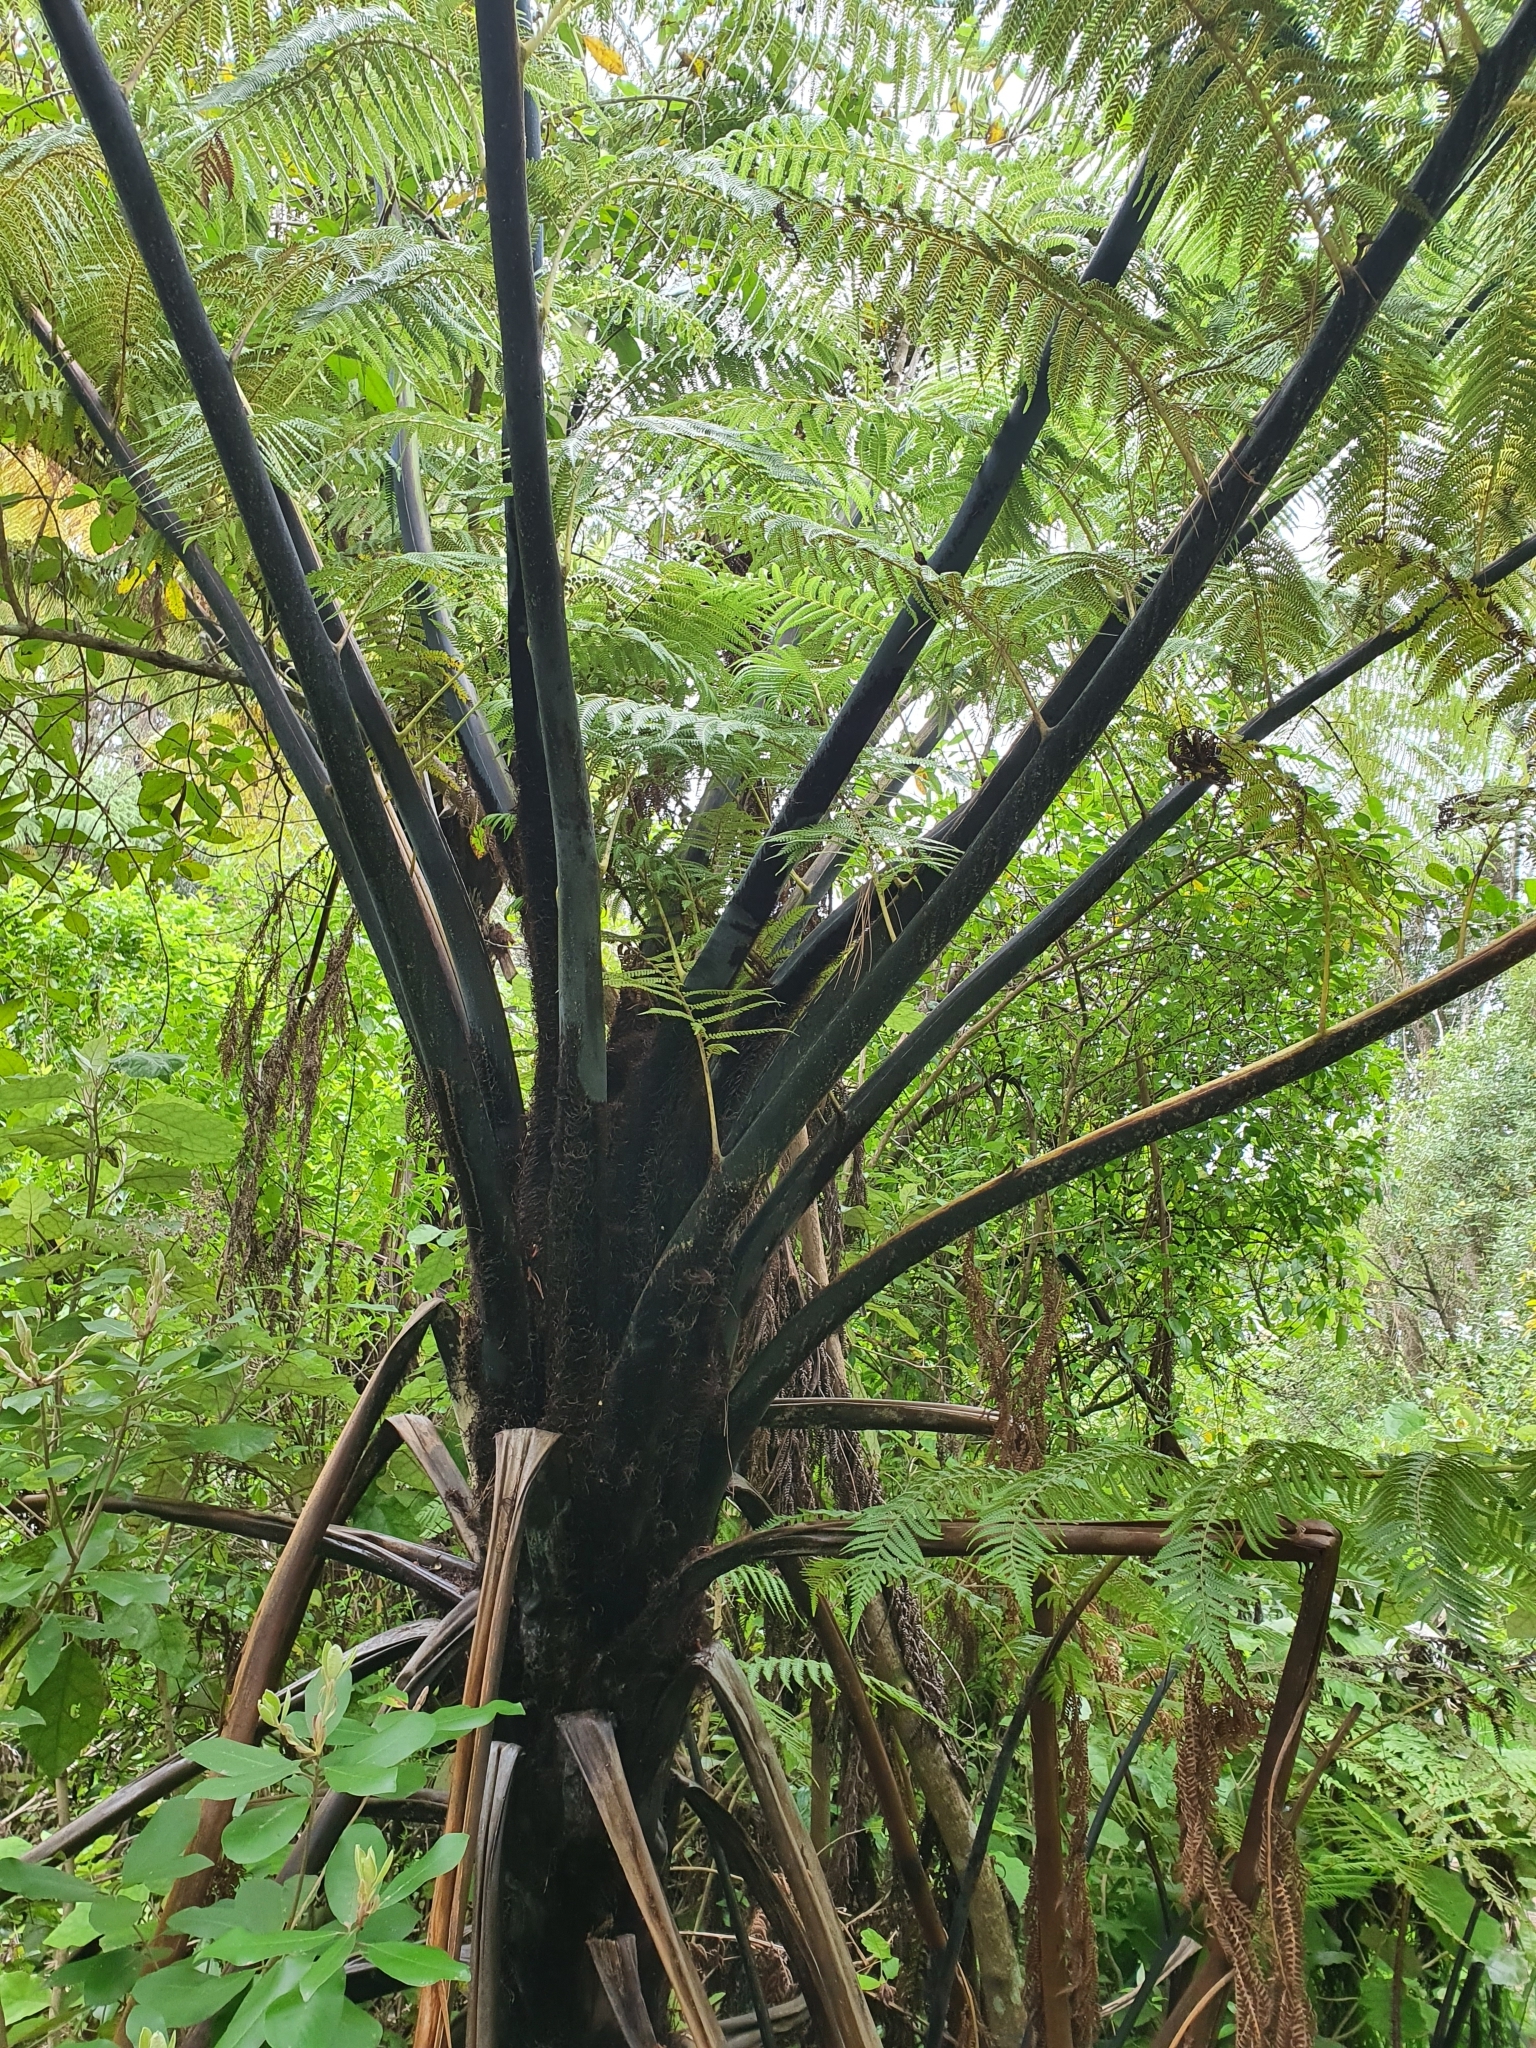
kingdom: Plantae
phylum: Tracheophyta
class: Polypodiopsida
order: Cyatheales
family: Cyatheaceae
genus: Sphaeropteris
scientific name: Sphaeropteris medullaris
